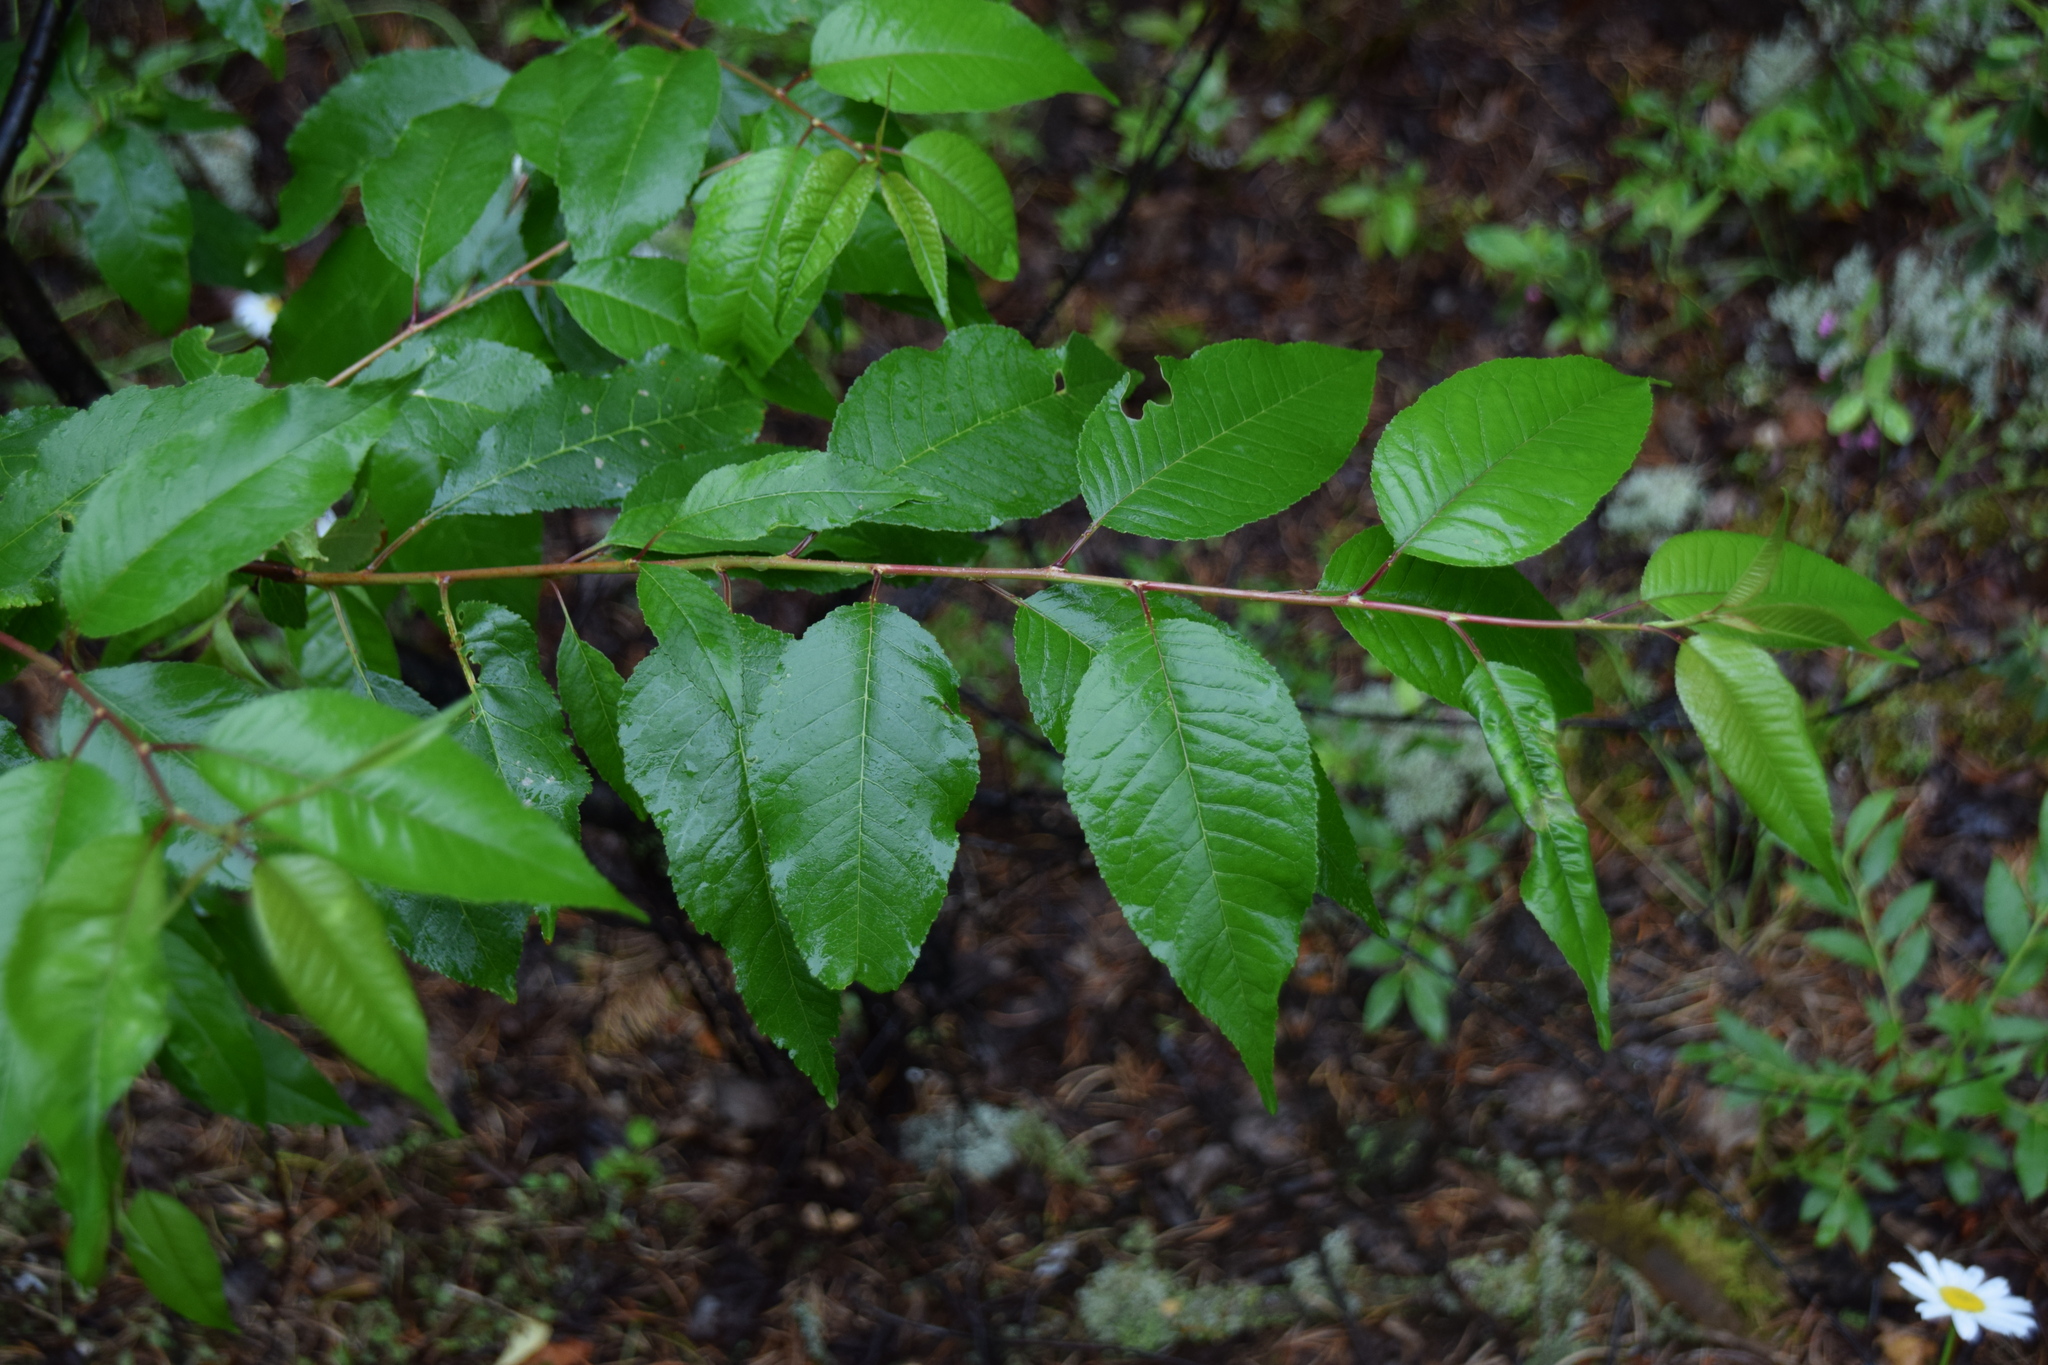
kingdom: Plantae
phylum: Tracheophyta
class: Magnoliopsida
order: Rosales
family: Rosaceae
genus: Prunus
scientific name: Prunus pensylvanica
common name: Pin cherry
